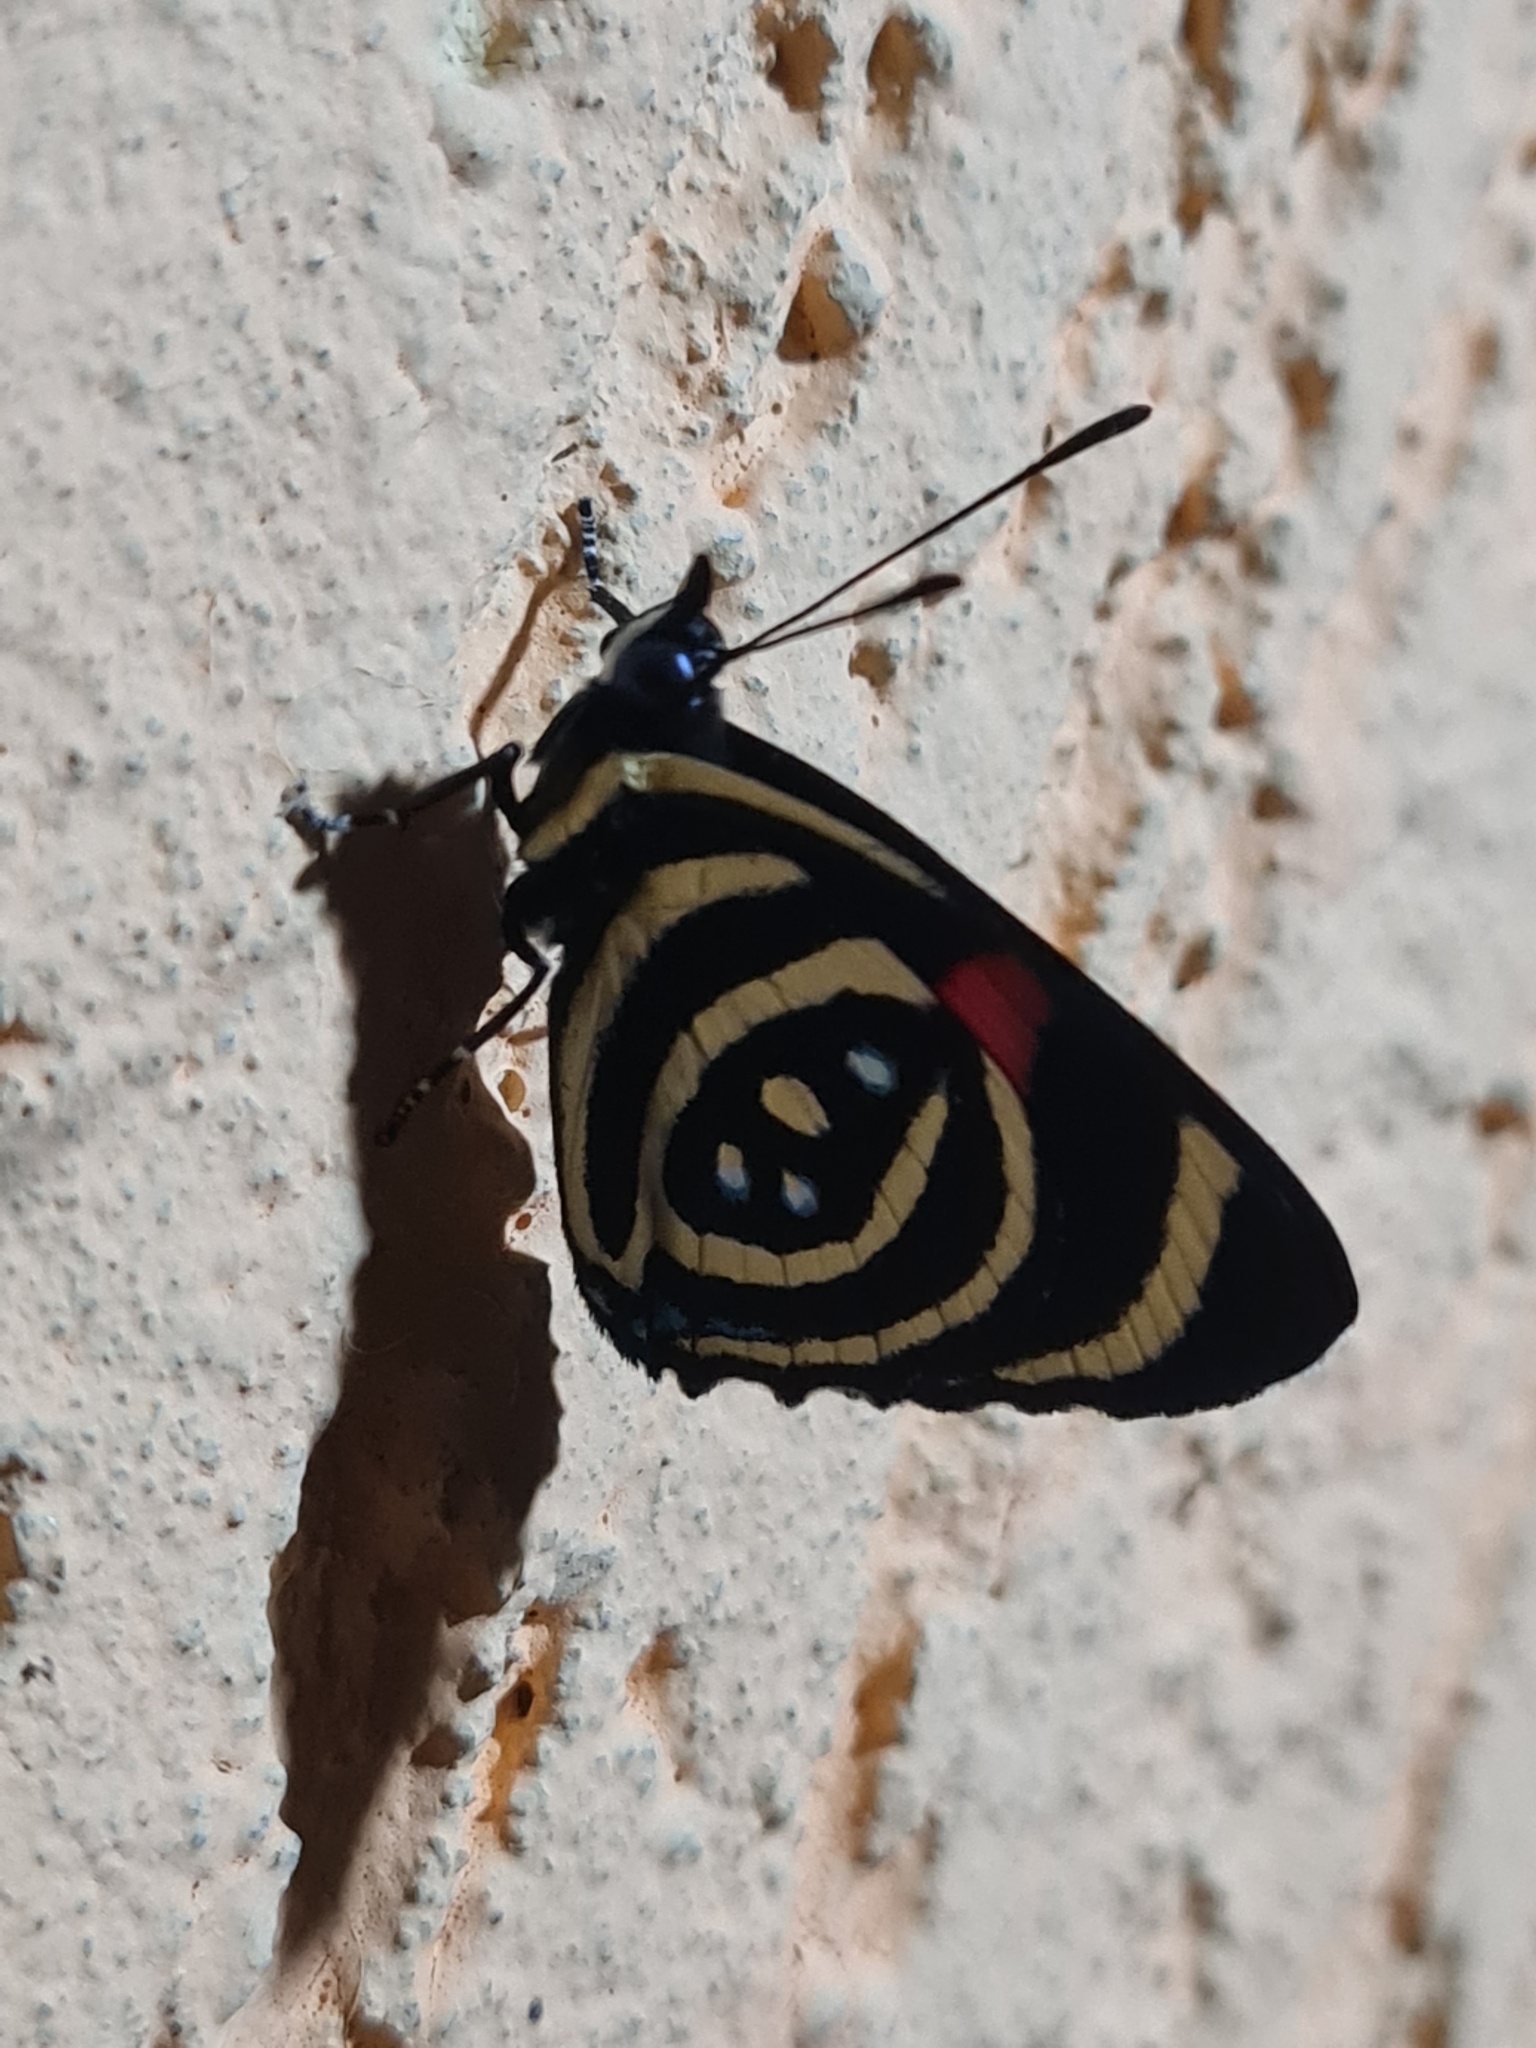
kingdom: Animalia
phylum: Arthropoda
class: Insecta
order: Lepidoptera
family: Nymphalidae
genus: Catagramma
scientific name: Catagramma Callicore hydaspes
